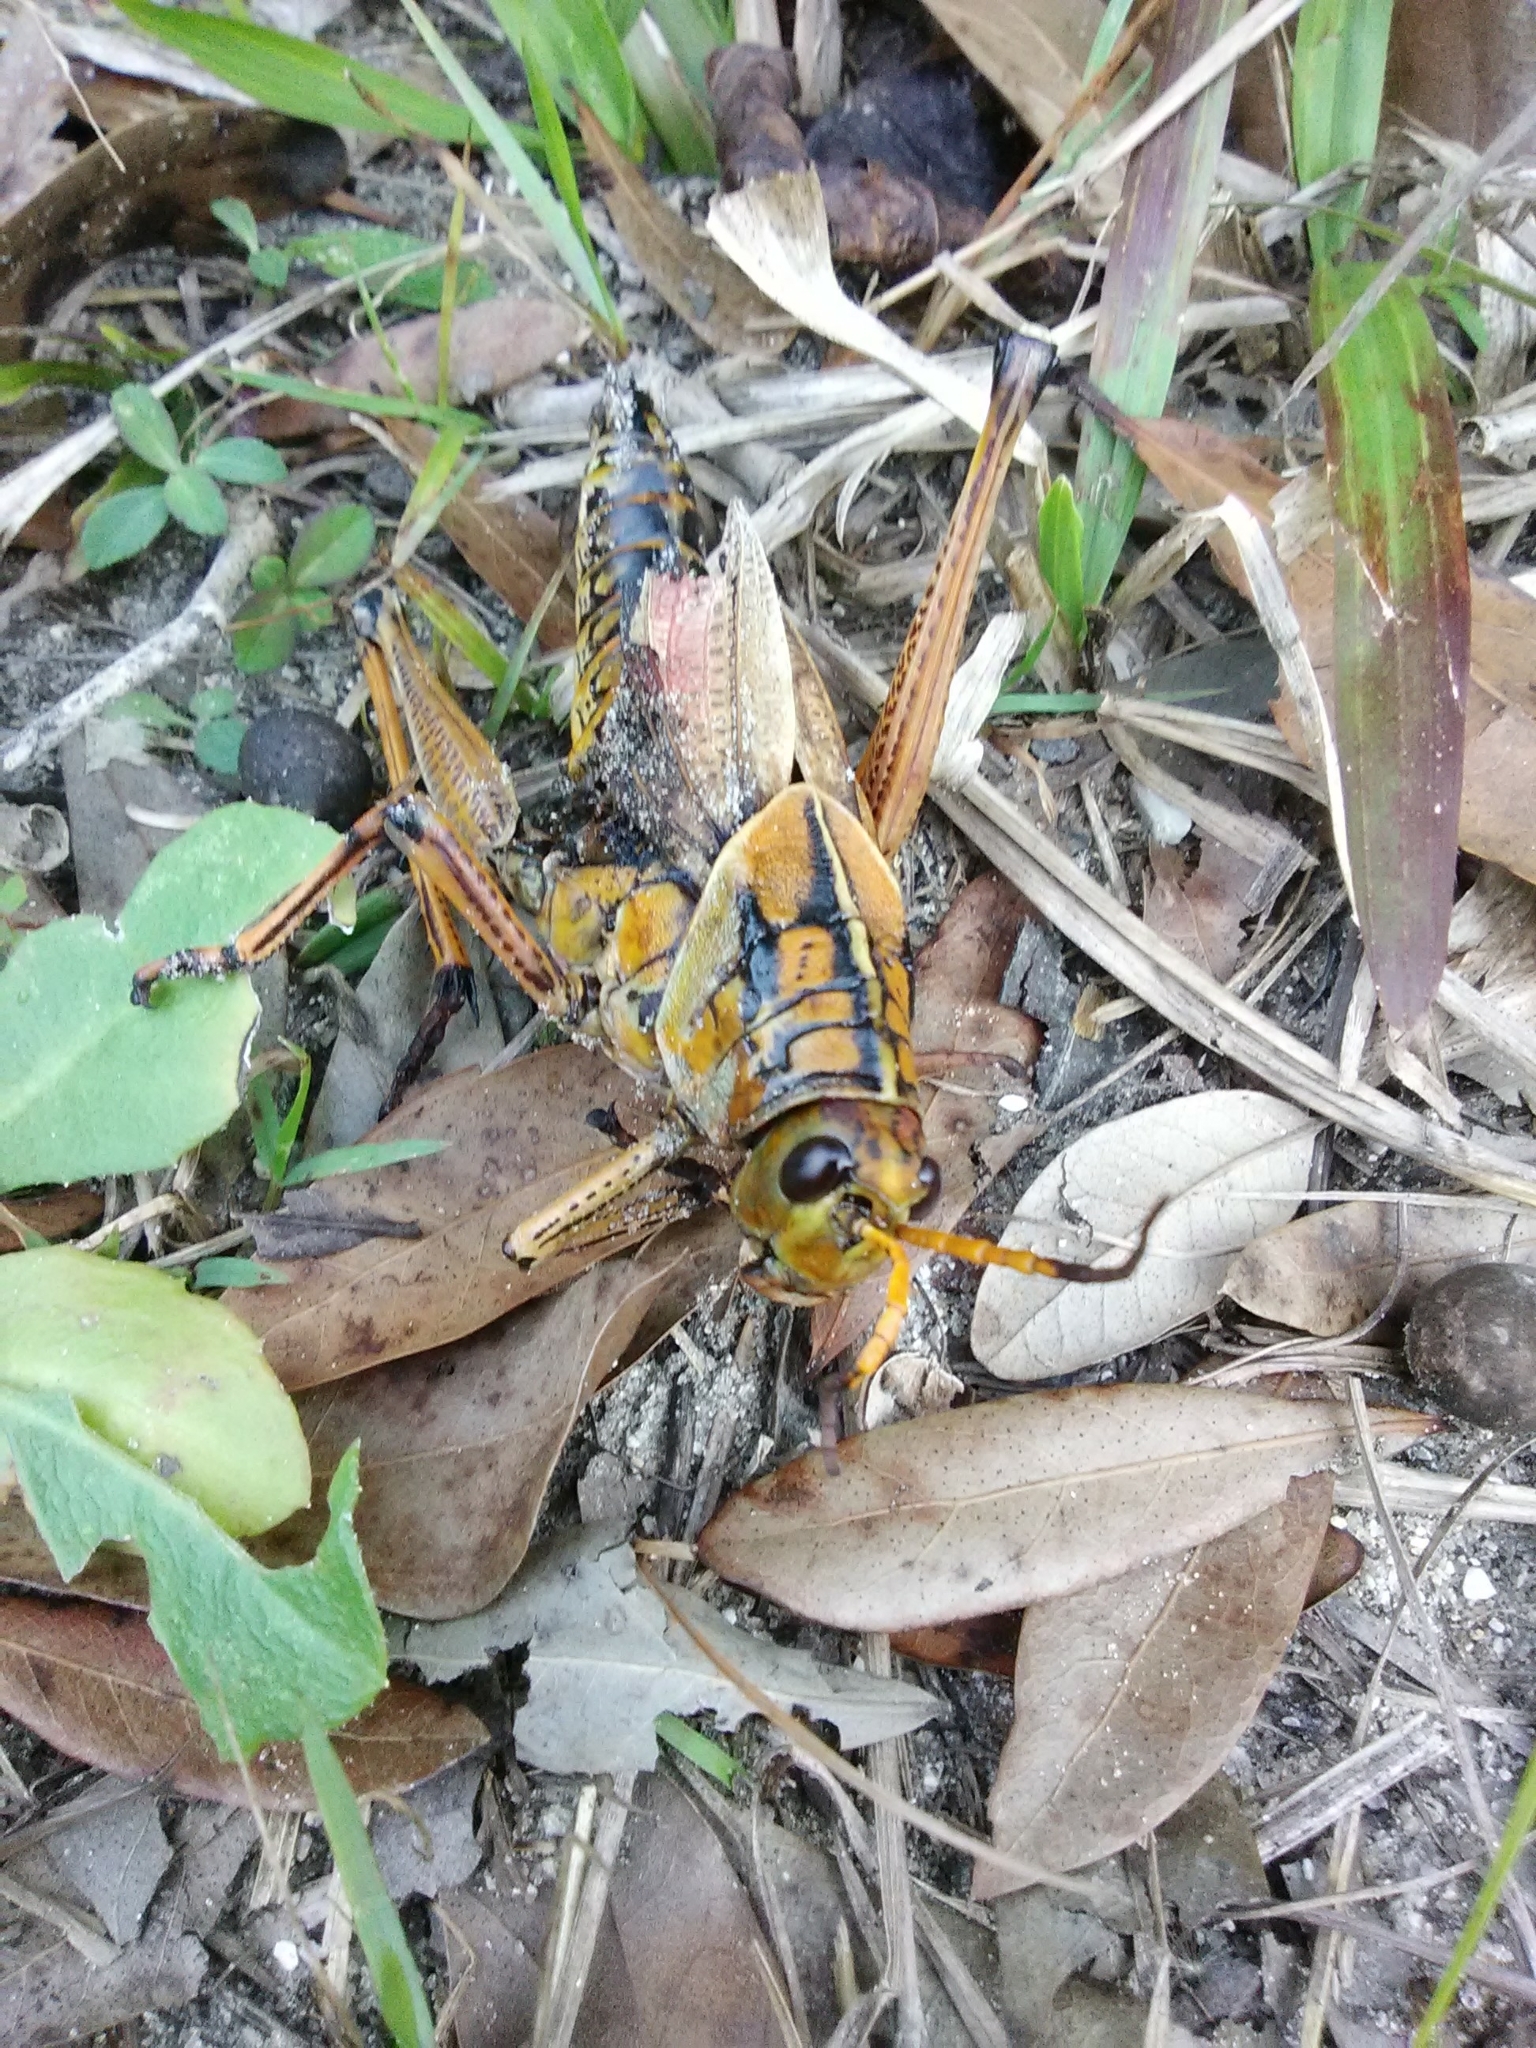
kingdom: Animalia
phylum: Arthropoda
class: Insecta
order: Orthoptera
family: Romaleidae
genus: Romalea
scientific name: Romalea microptera
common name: Eastern lubber grasshopper
